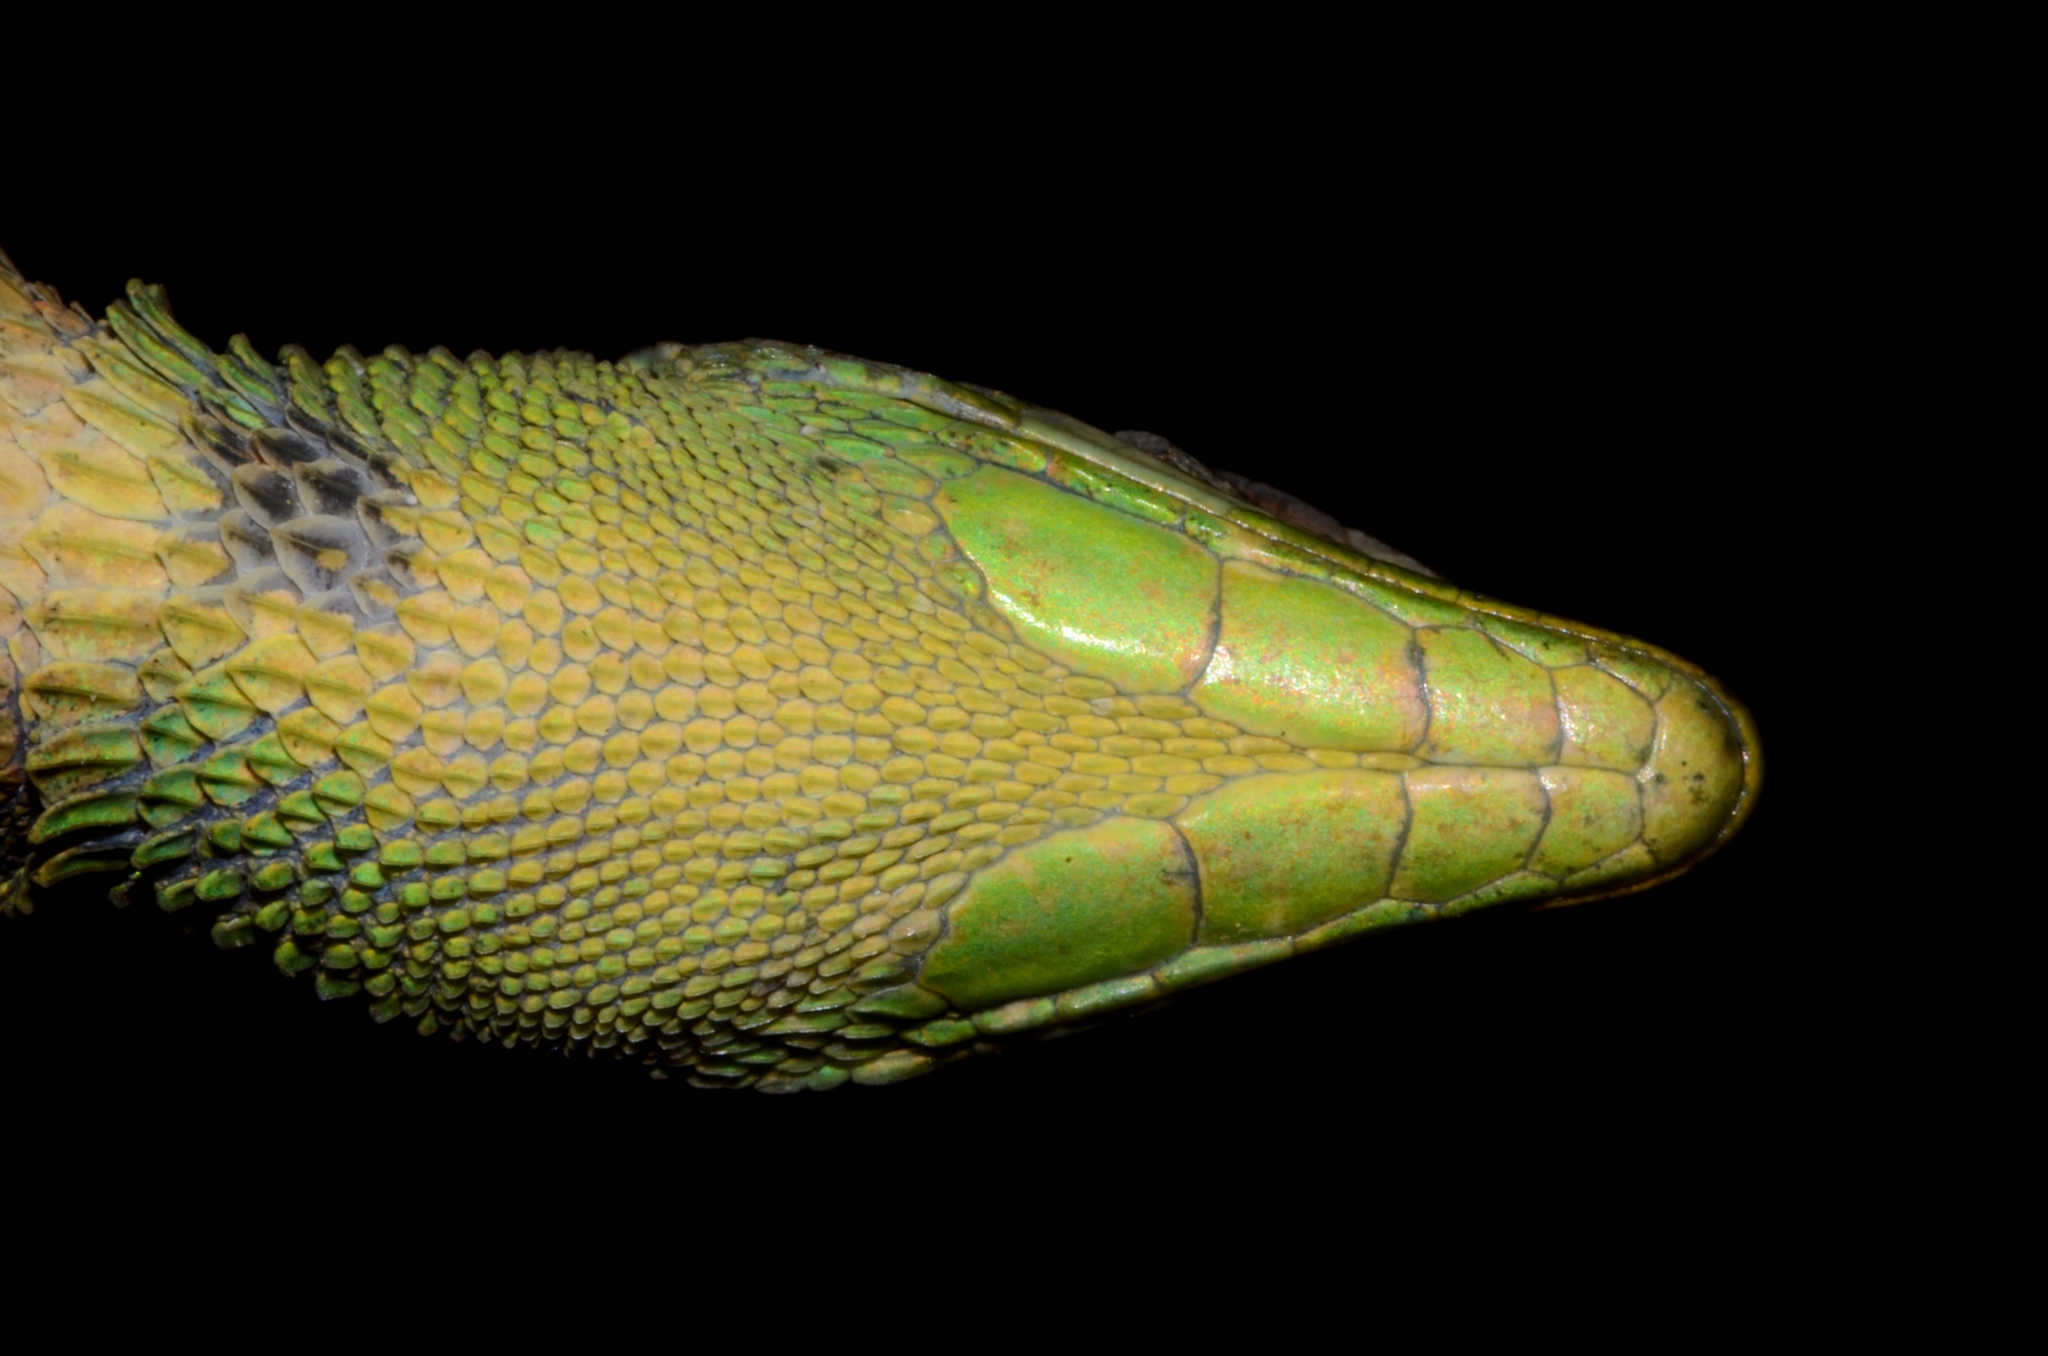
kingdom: Animalia
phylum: Chordata
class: Squamata
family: Lacertidae
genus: Poromera
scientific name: Poromera fordii
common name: West african striped lizard
